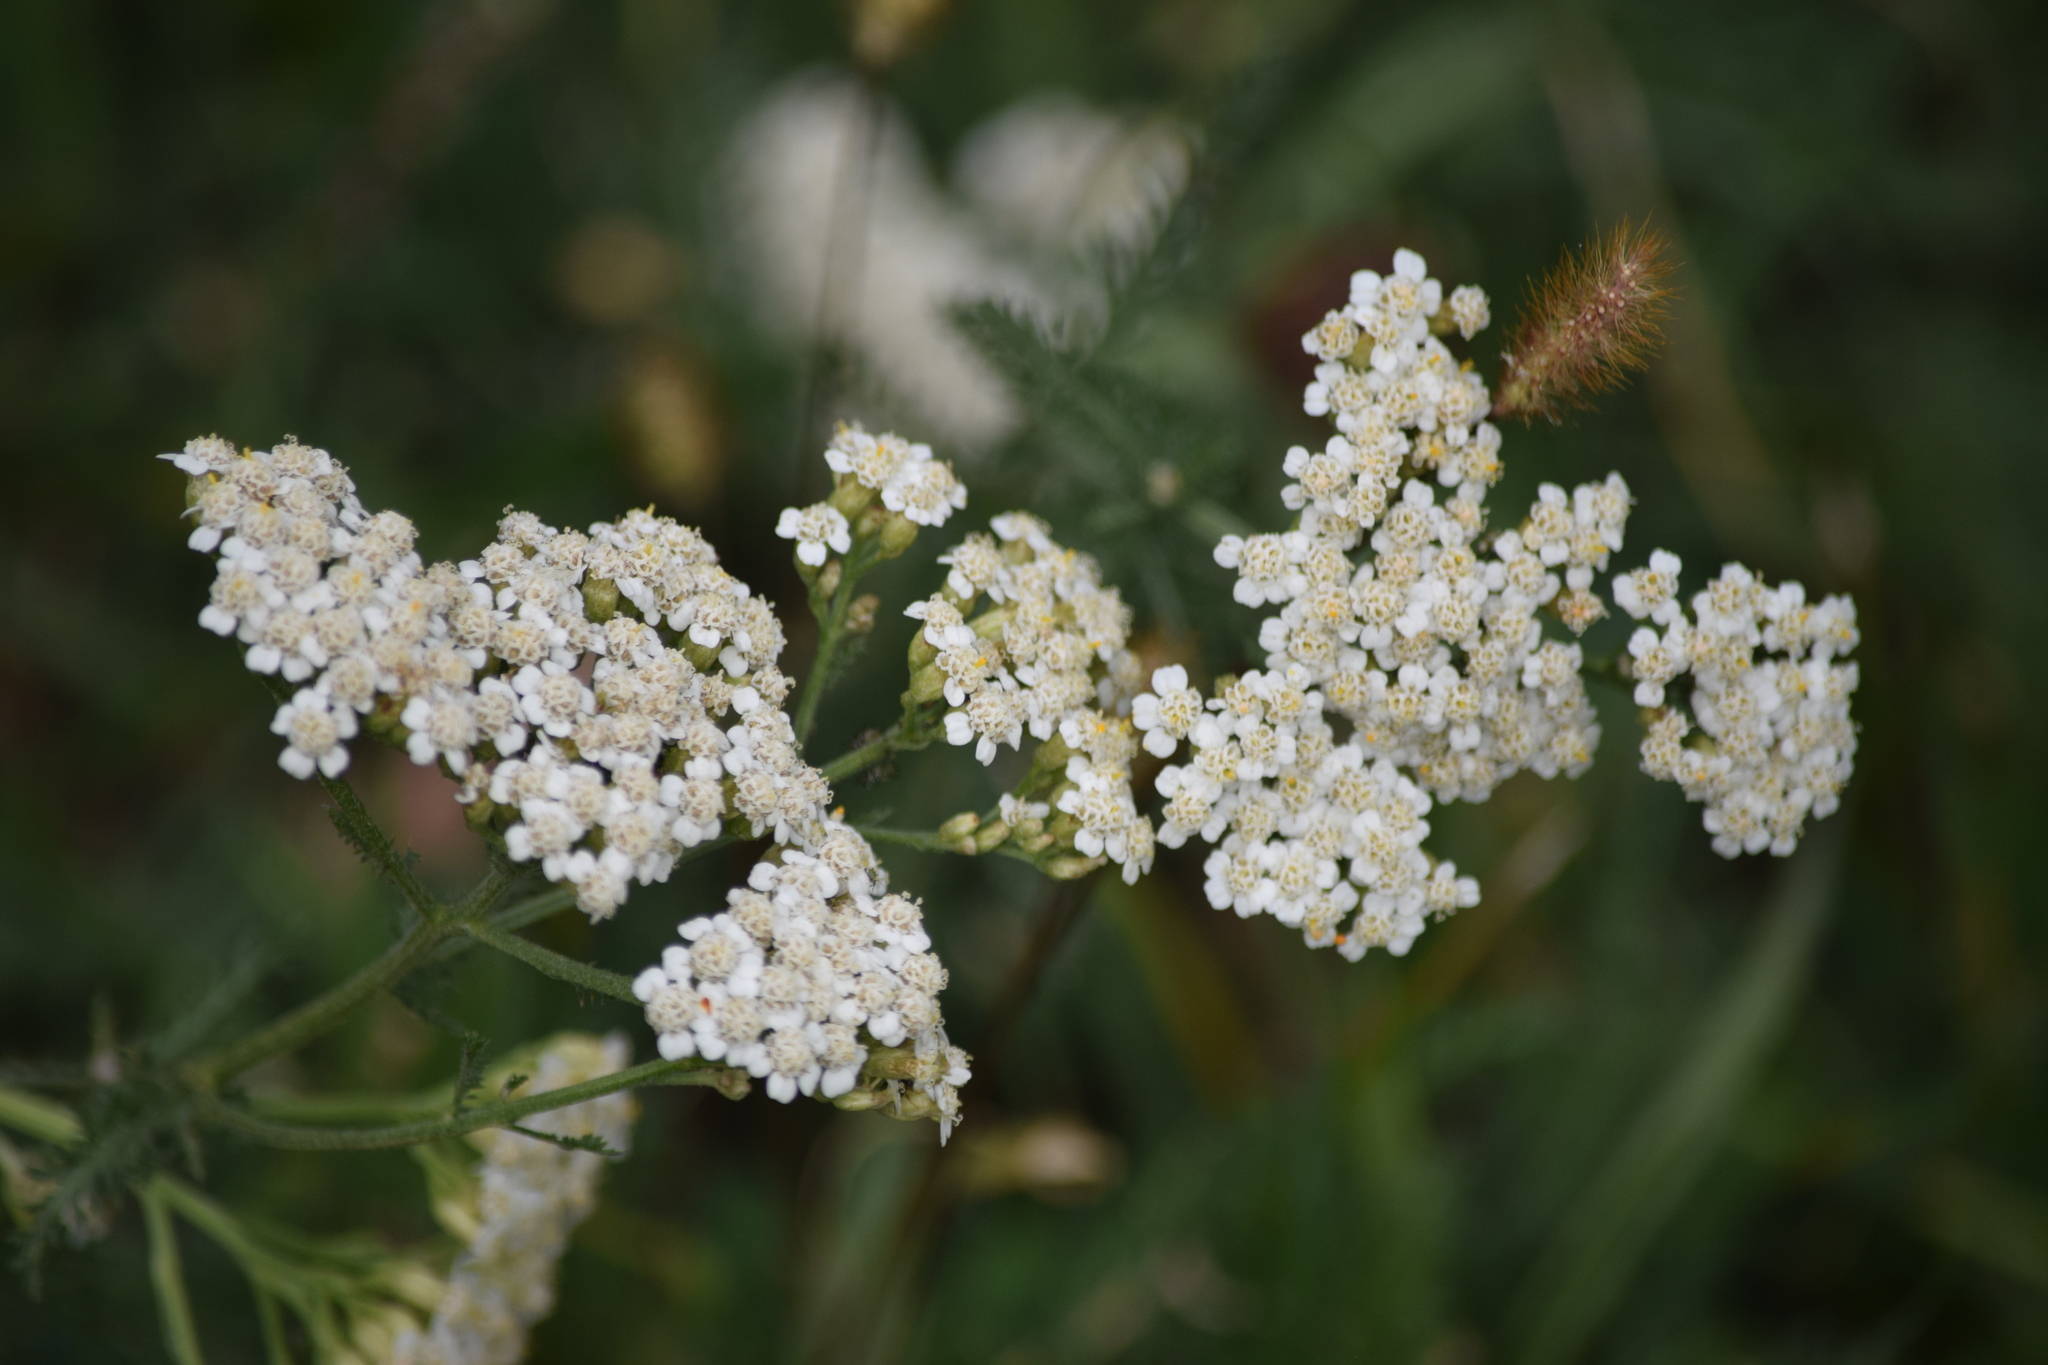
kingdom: Plantae
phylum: Tracheophyta
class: Magnoliopsida
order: Asterales
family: Asteraceae
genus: Achillea
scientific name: Achillea millefolium
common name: Yarrow
